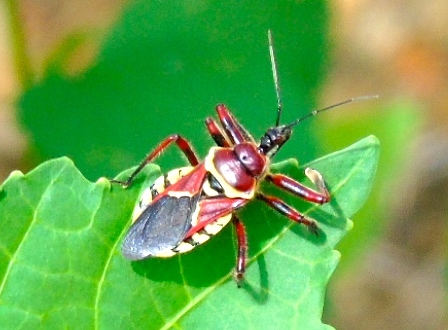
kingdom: Animalia
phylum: Arthropoda
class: Insecta
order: Hemiptera
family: Reduviidae
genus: Apiomerus
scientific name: Apiomerus flaviventris
